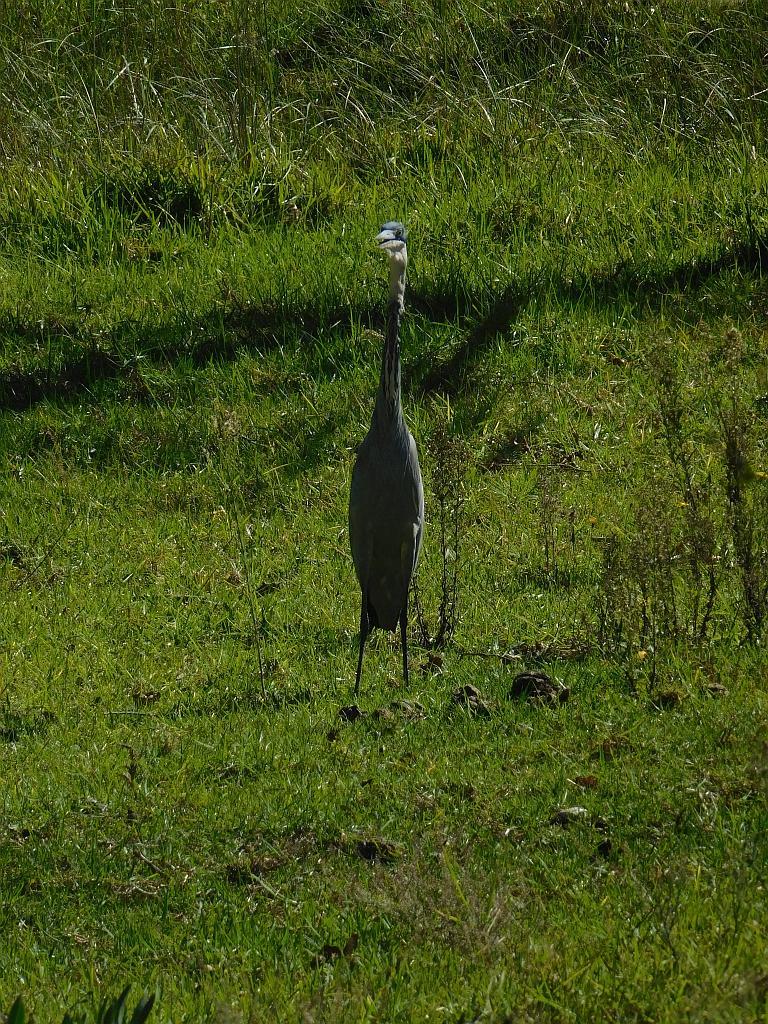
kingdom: Animalia
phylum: Chordata
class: Aves
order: Pelecaniformes
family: Ardeidae
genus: Ardea
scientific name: Ardea melanocephala
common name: Black-headed heron
